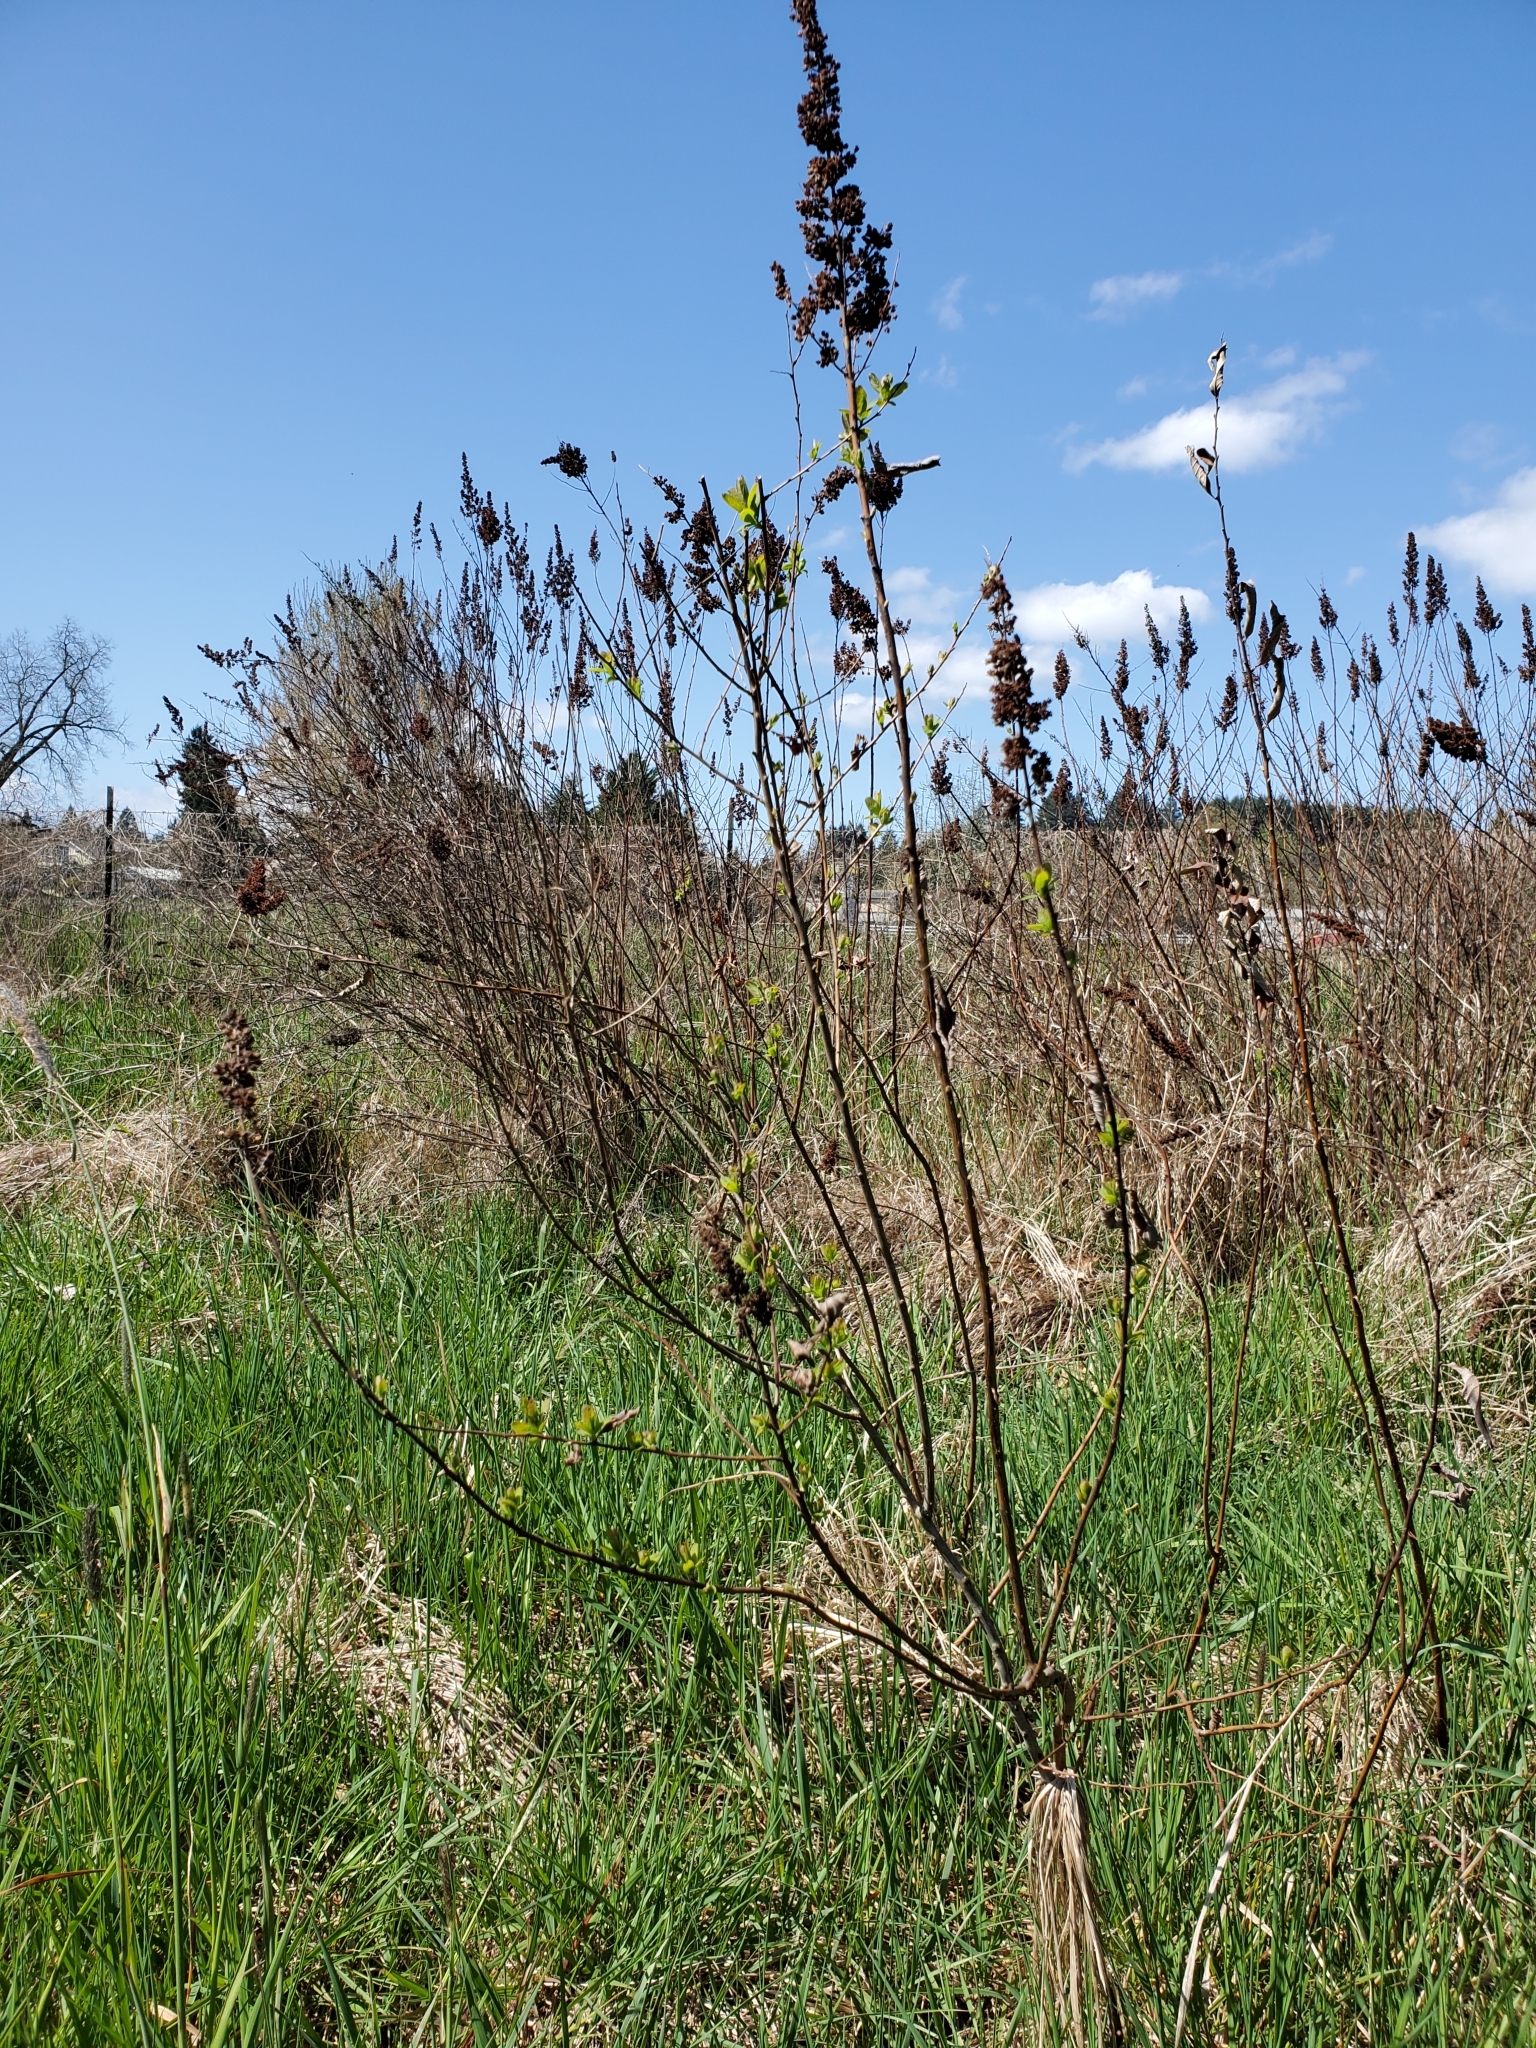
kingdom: Plantae
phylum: Tracheophyta
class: Magnoliopsida
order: Rosales
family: Rosaceae
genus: Spiraea
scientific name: Spiraea douglasii
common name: Steeplebush
